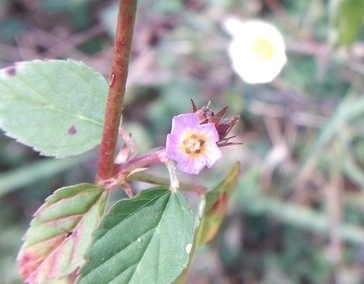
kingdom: Plantae
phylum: Tracheophyta
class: Magnoliopsida
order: Malvales
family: Malvaceae
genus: Melochia
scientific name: Melochia corchorifolia
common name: Chocolateweed
